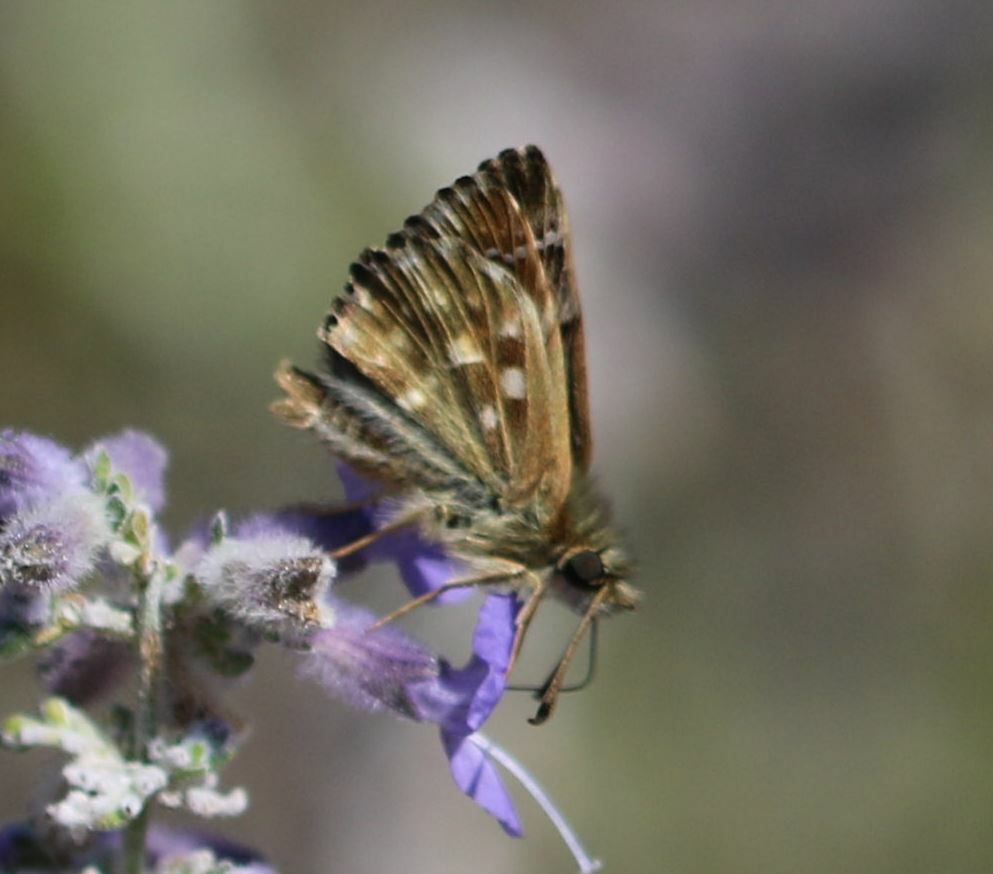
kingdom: Animalia
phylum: Arthropoda
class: Insecta
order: Lepidoptera
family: Hesperiidae
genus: Carcharodus
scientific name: Carcharodus alceae
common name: Mallow skipper
